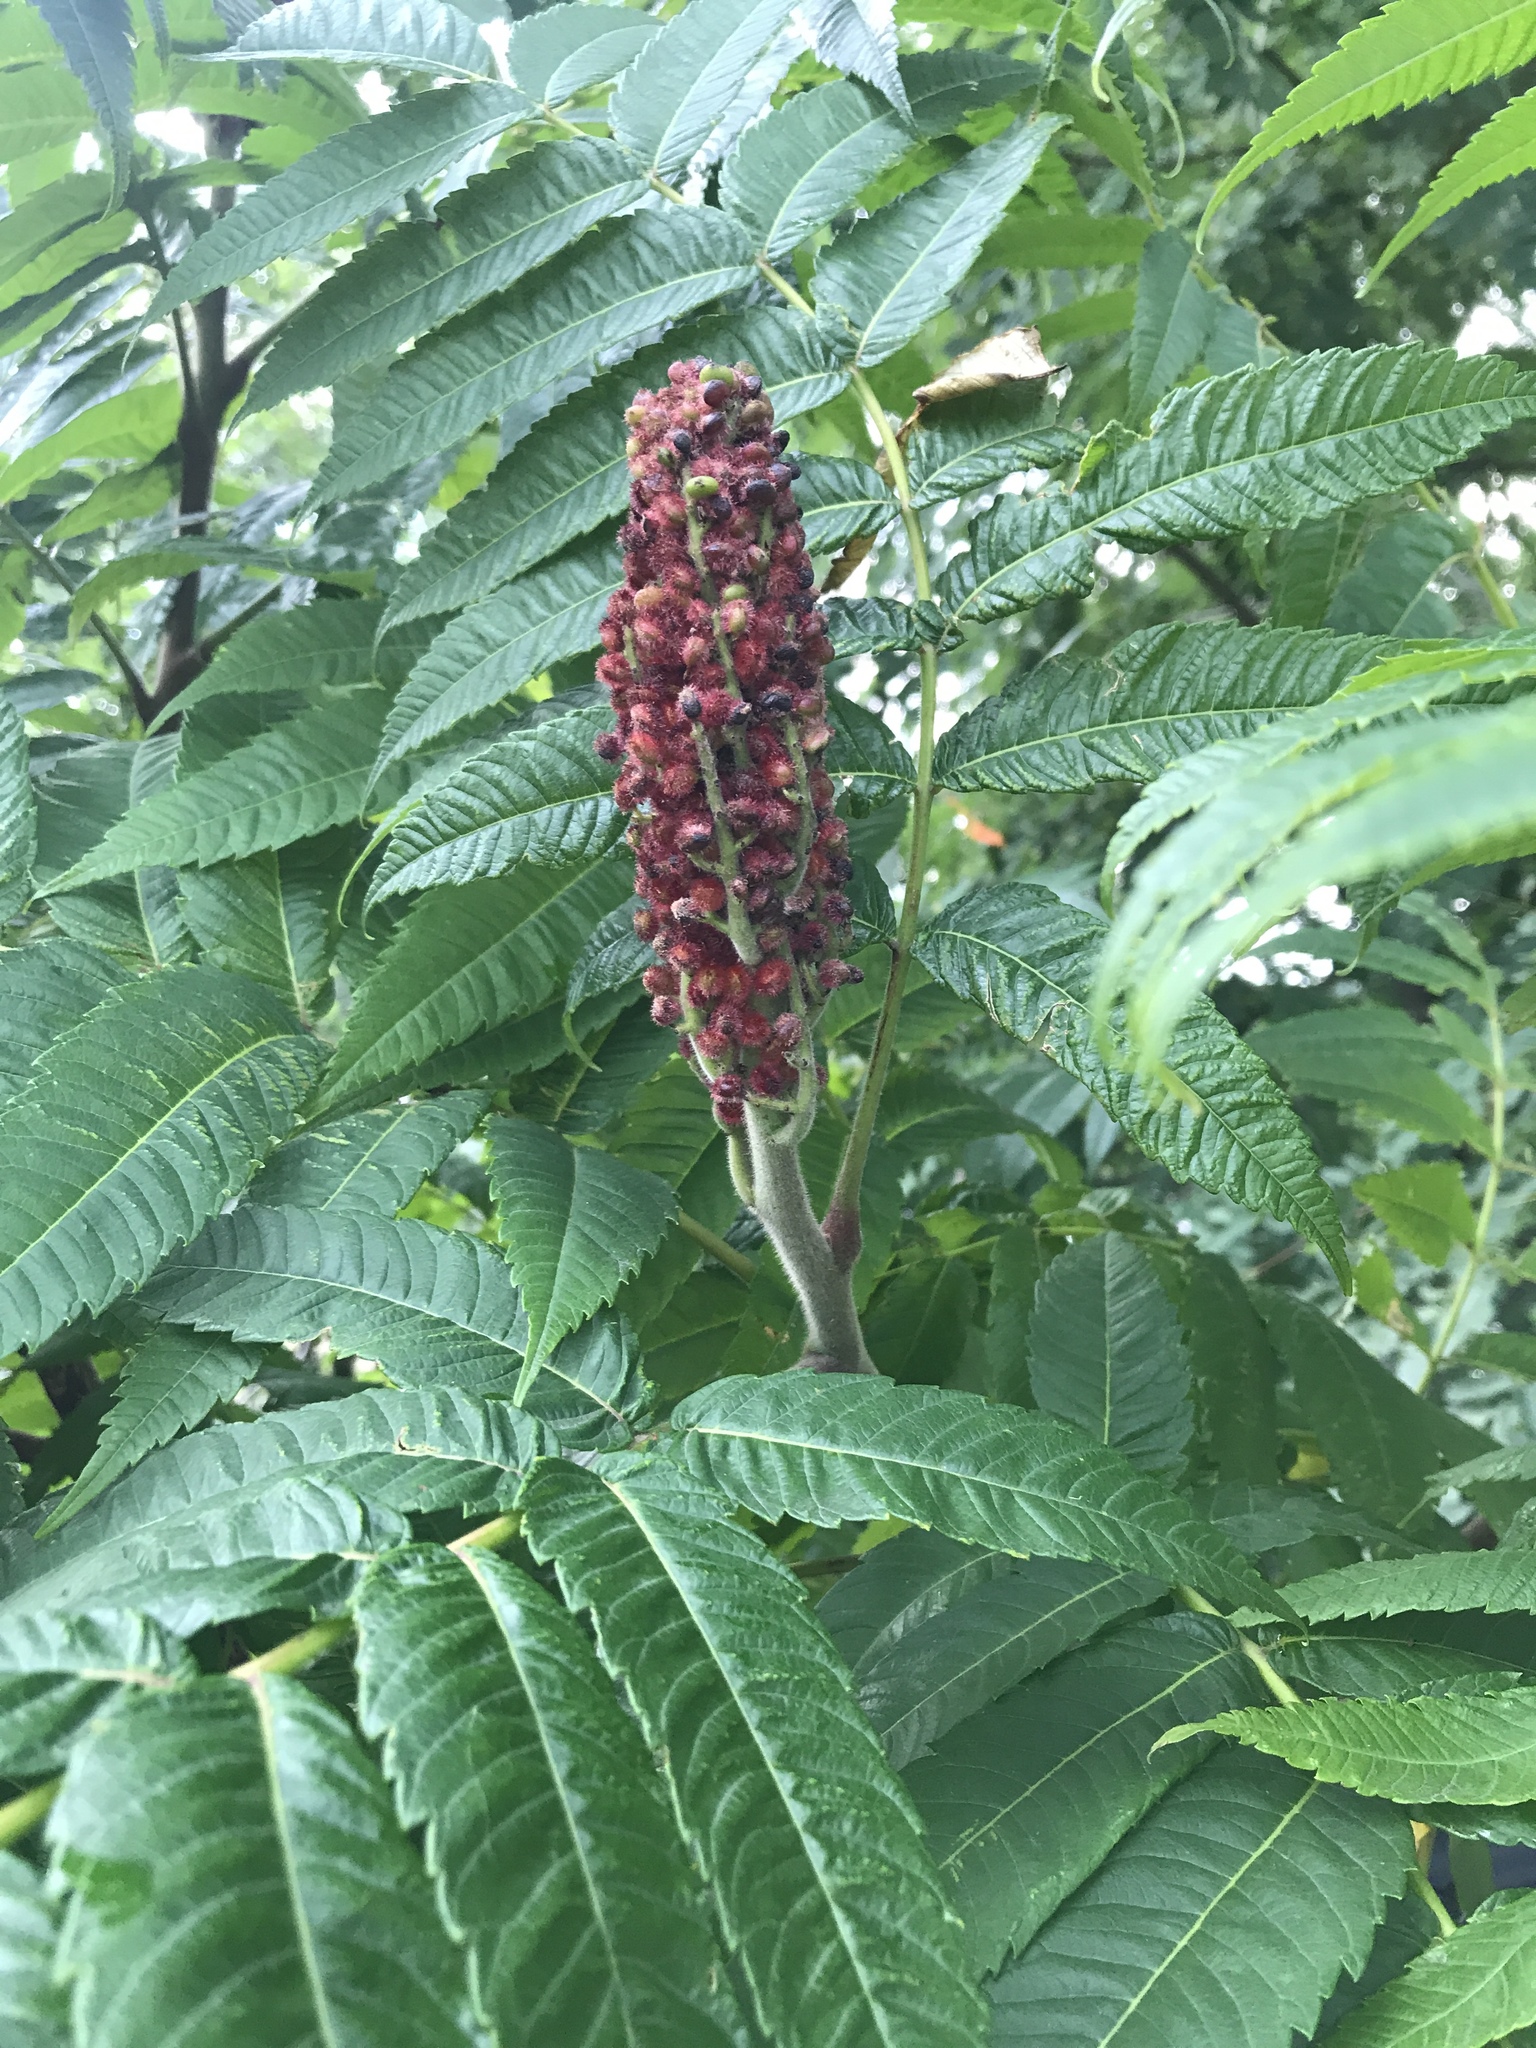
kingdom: Plantae
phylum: Tracheophyta
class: Magnoliopsida
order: Sapindales
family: Anacardiaceae
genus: Rhus
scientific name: Rhus typhina
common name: Staghorn sumac
